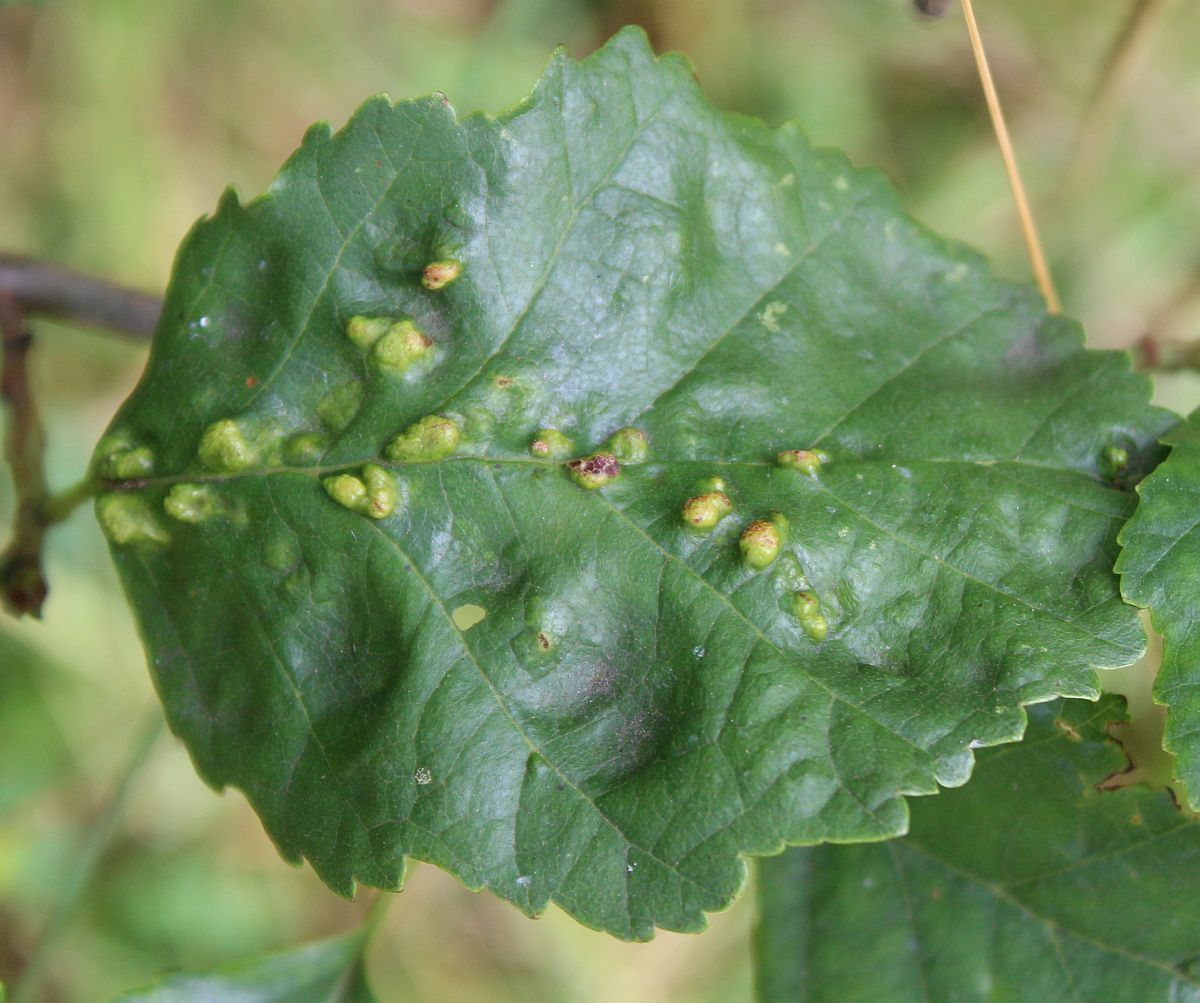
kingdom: Animalia
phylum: Arthropoda
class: Arachnida
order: Trombidiformes
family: Eriophyidae
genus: Eriophyes
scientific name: Eriophyes laevis
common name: Alder leaf gall mite
